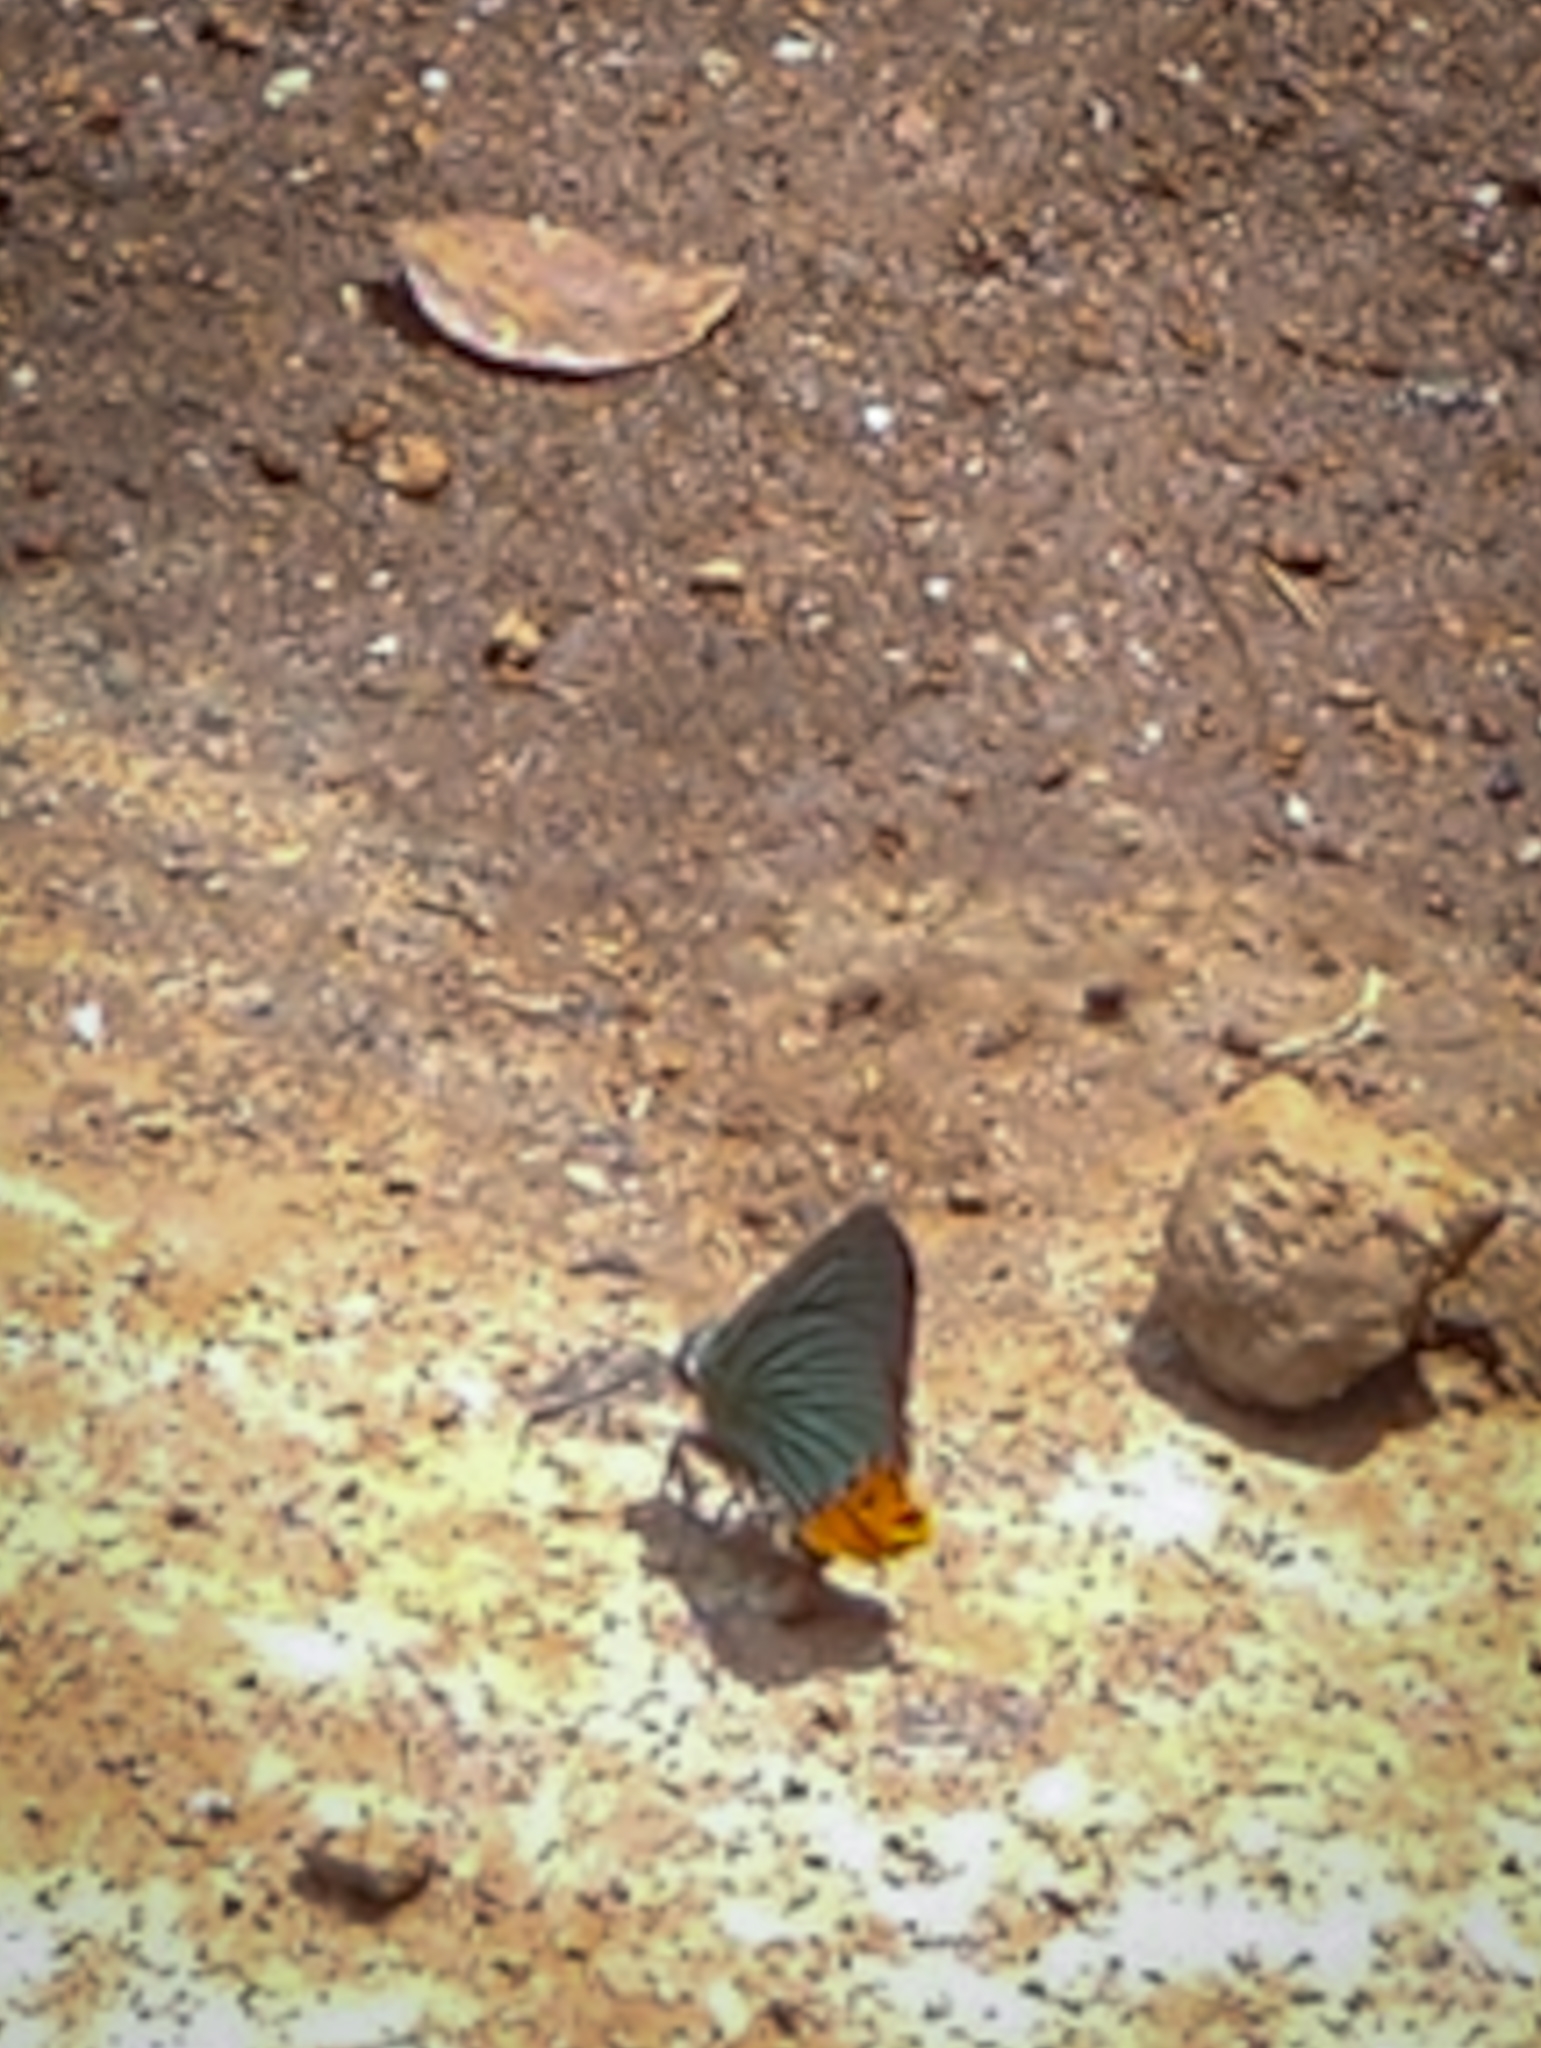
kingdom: Animalia
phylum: Arthropoda
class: Insecta
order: Lepidoptera
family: Hesperiidae
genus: Choaspes
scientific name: Choaspes benjaminii
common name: Indian awlking
